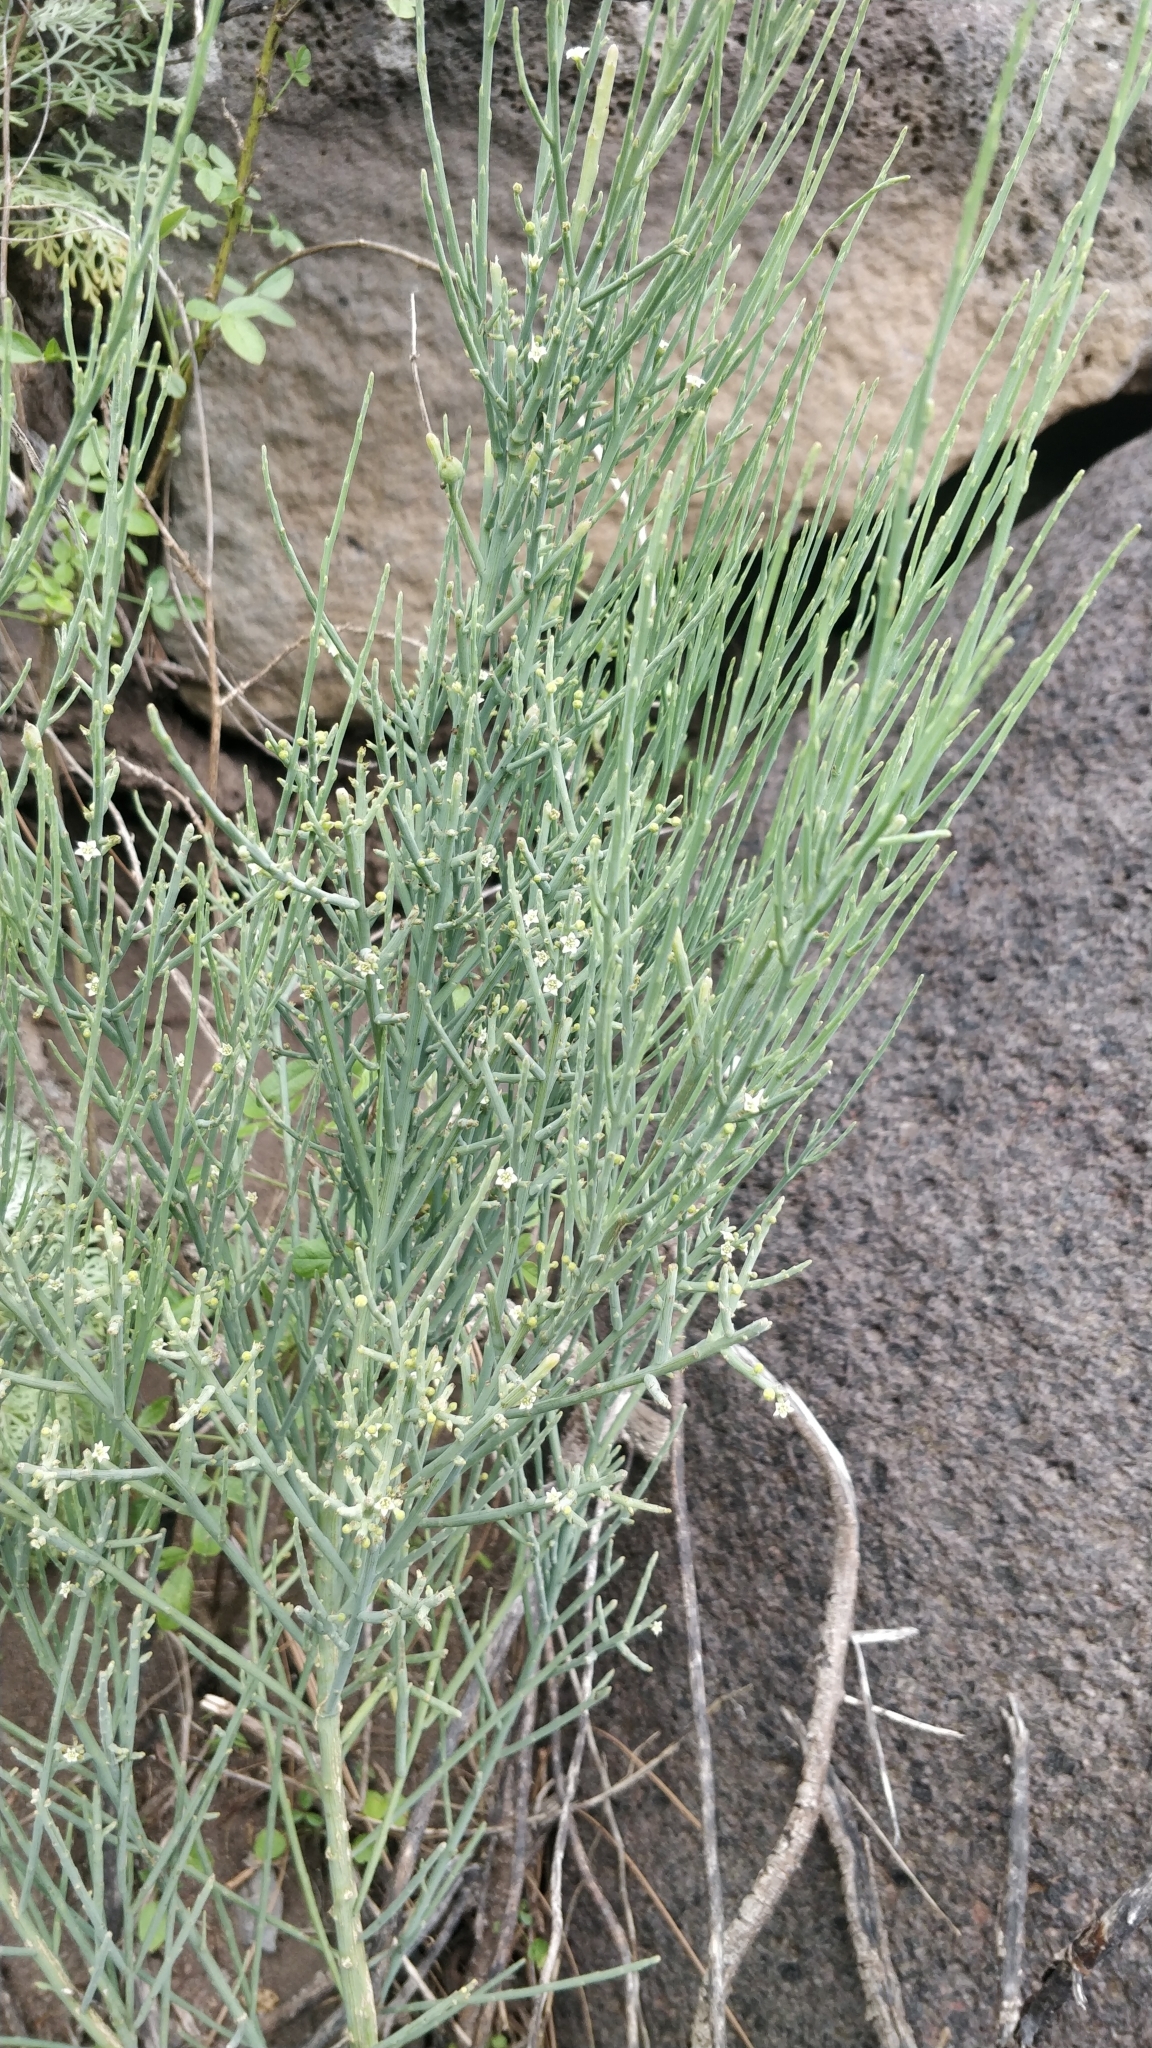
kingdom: Plantae
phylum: Tracheophyta
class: Magnoliopsida
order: Santalales
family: Thesiaceae
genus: Thesium
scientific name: Thesium retamoides
